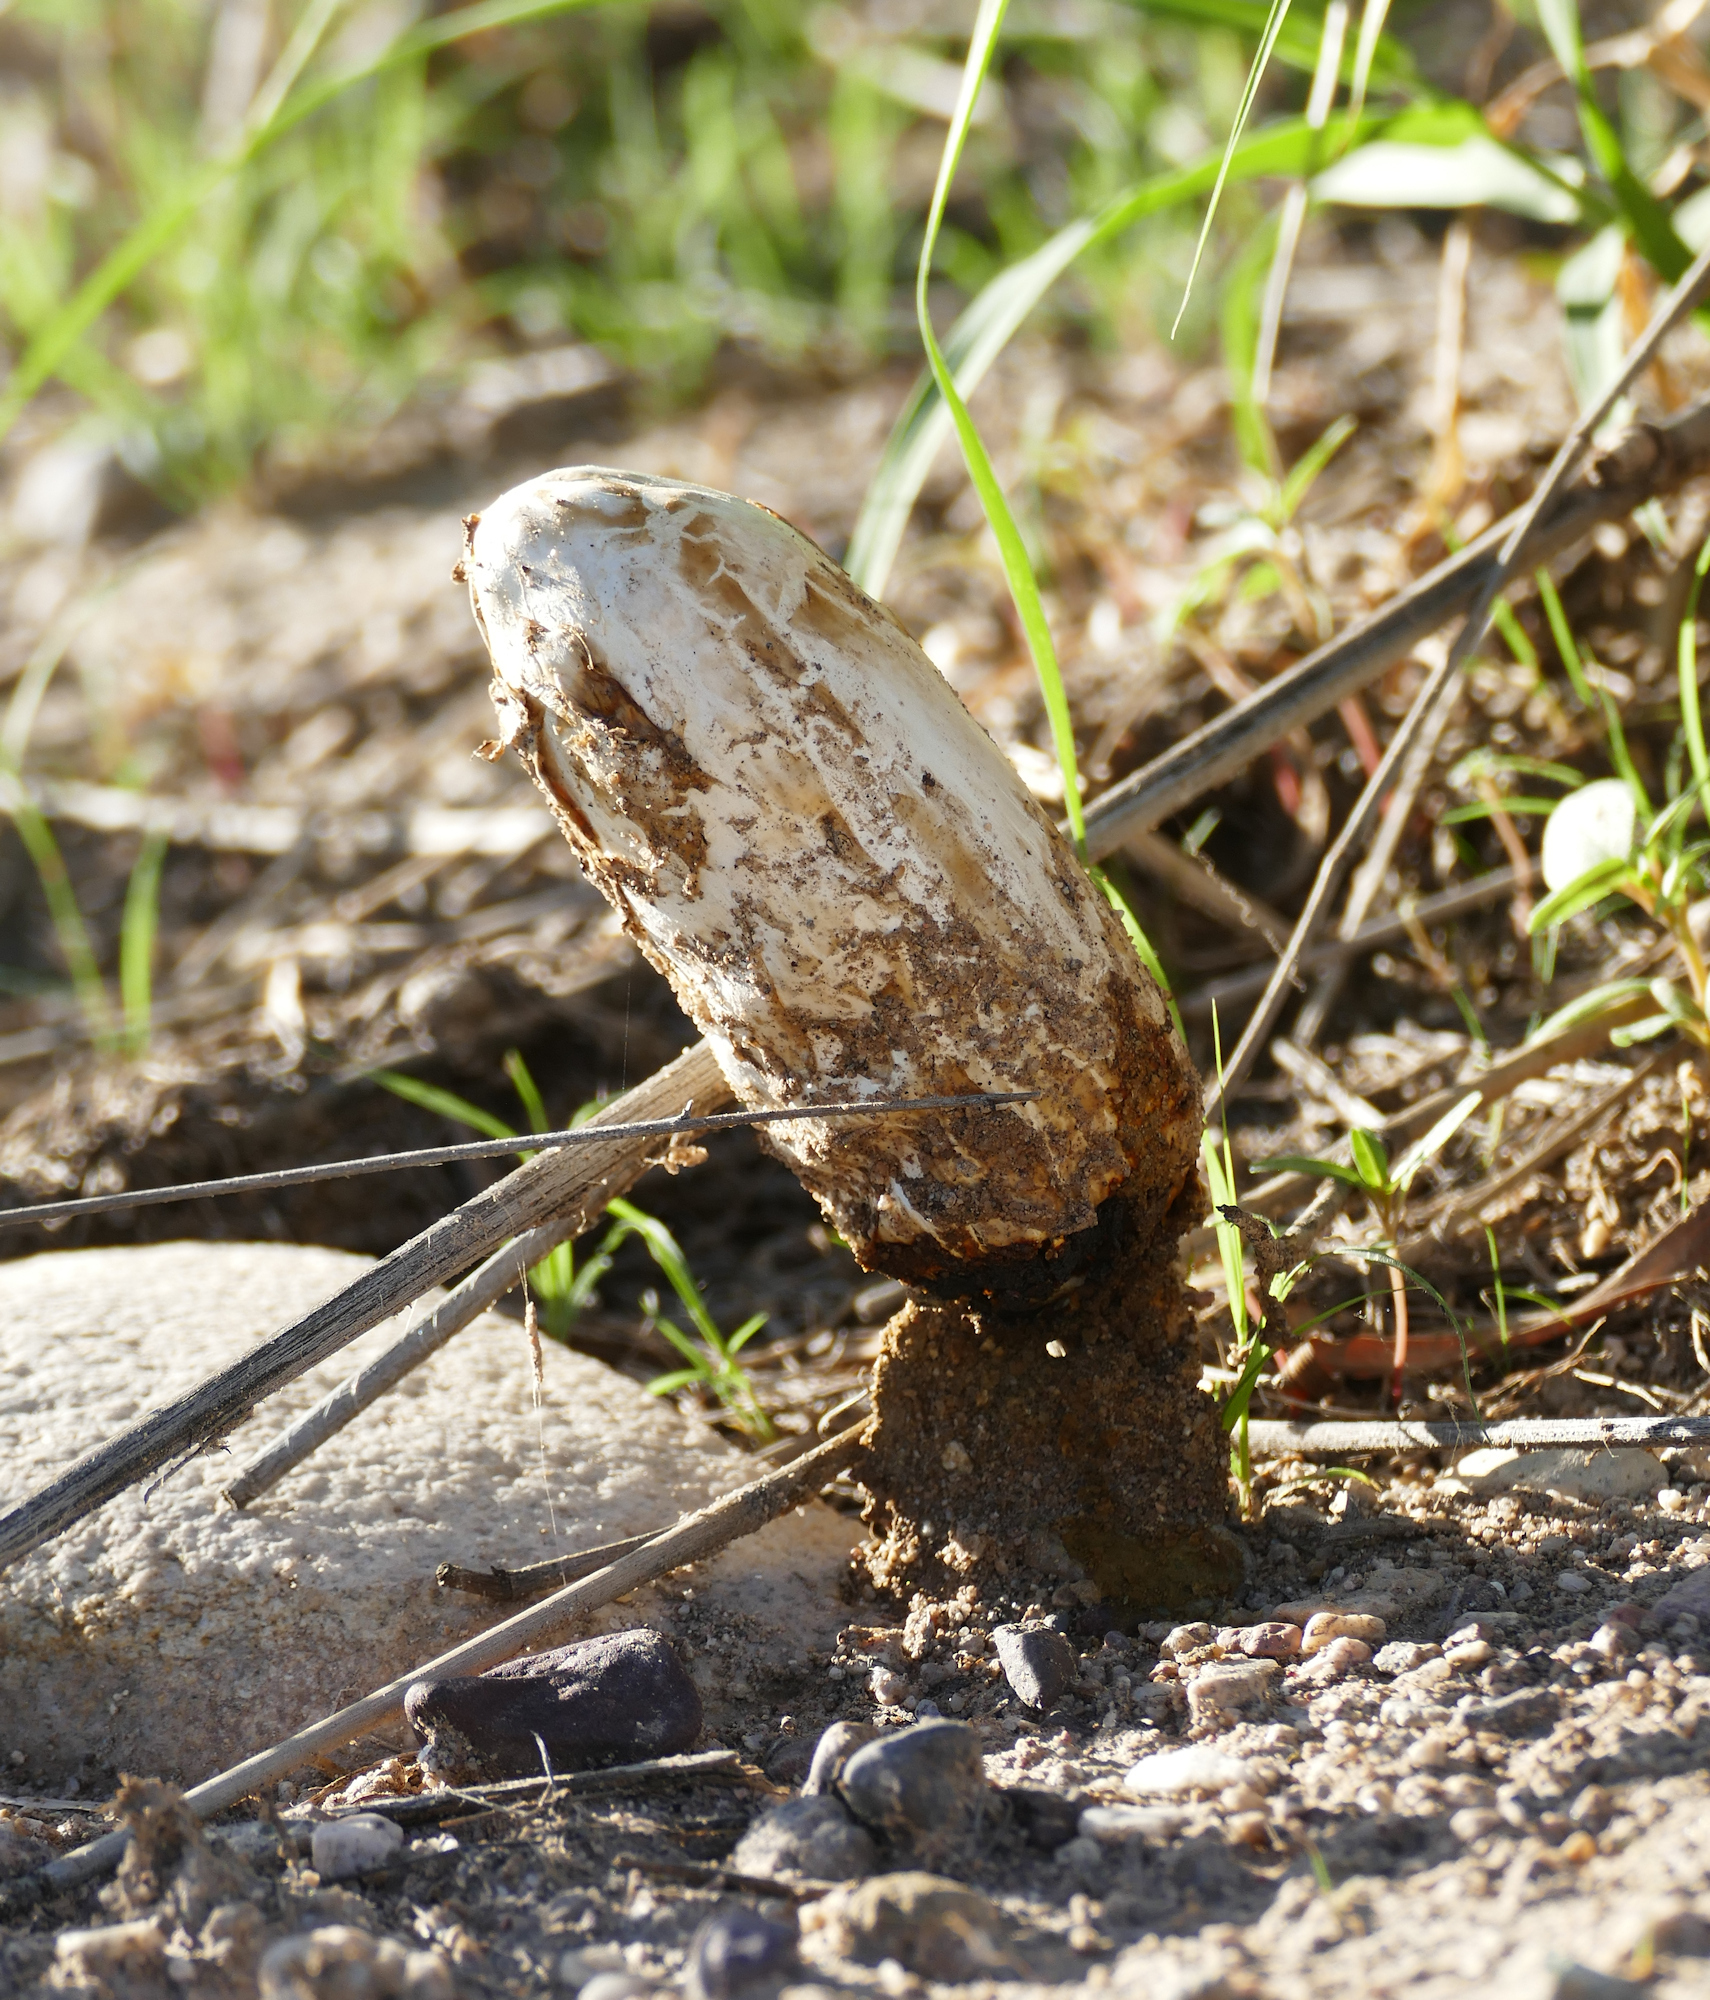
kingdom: Fungi
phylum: Basidiomycota
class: Agaricomycetes
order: Agaricales
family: Agaricaceae
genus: Podaxis
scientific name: Podaxis pistillaris
